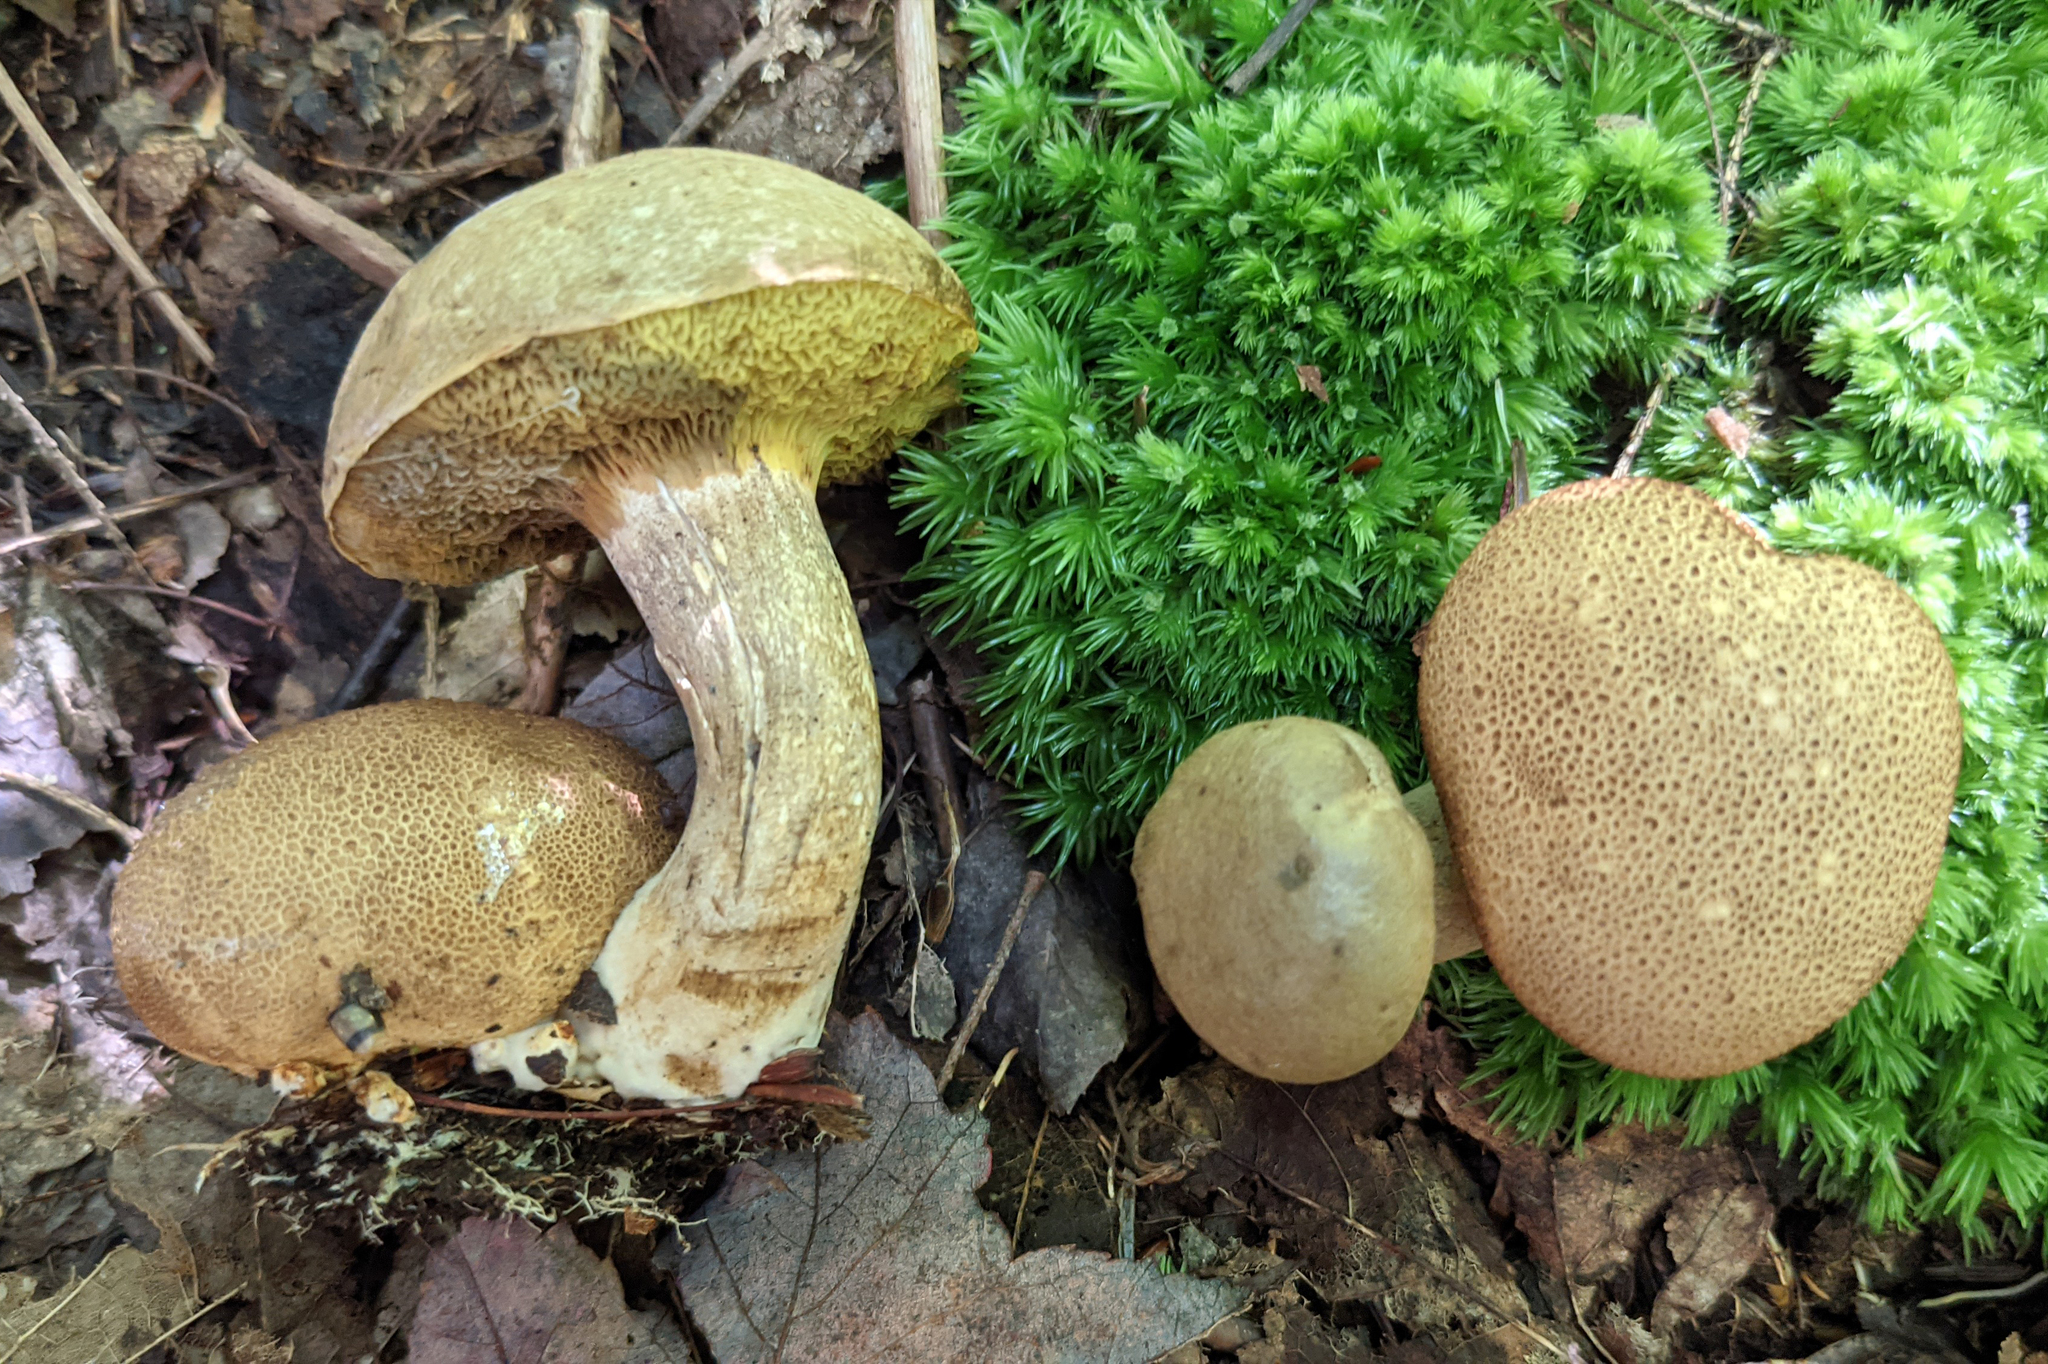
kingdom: Fungi
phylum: Basidiomycota
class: Agaricomycetes
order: Boletales
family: Boletaceae
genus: Pseudoboletus
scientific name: Pseudoboletus parasiticus
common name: Parasitic bolete
